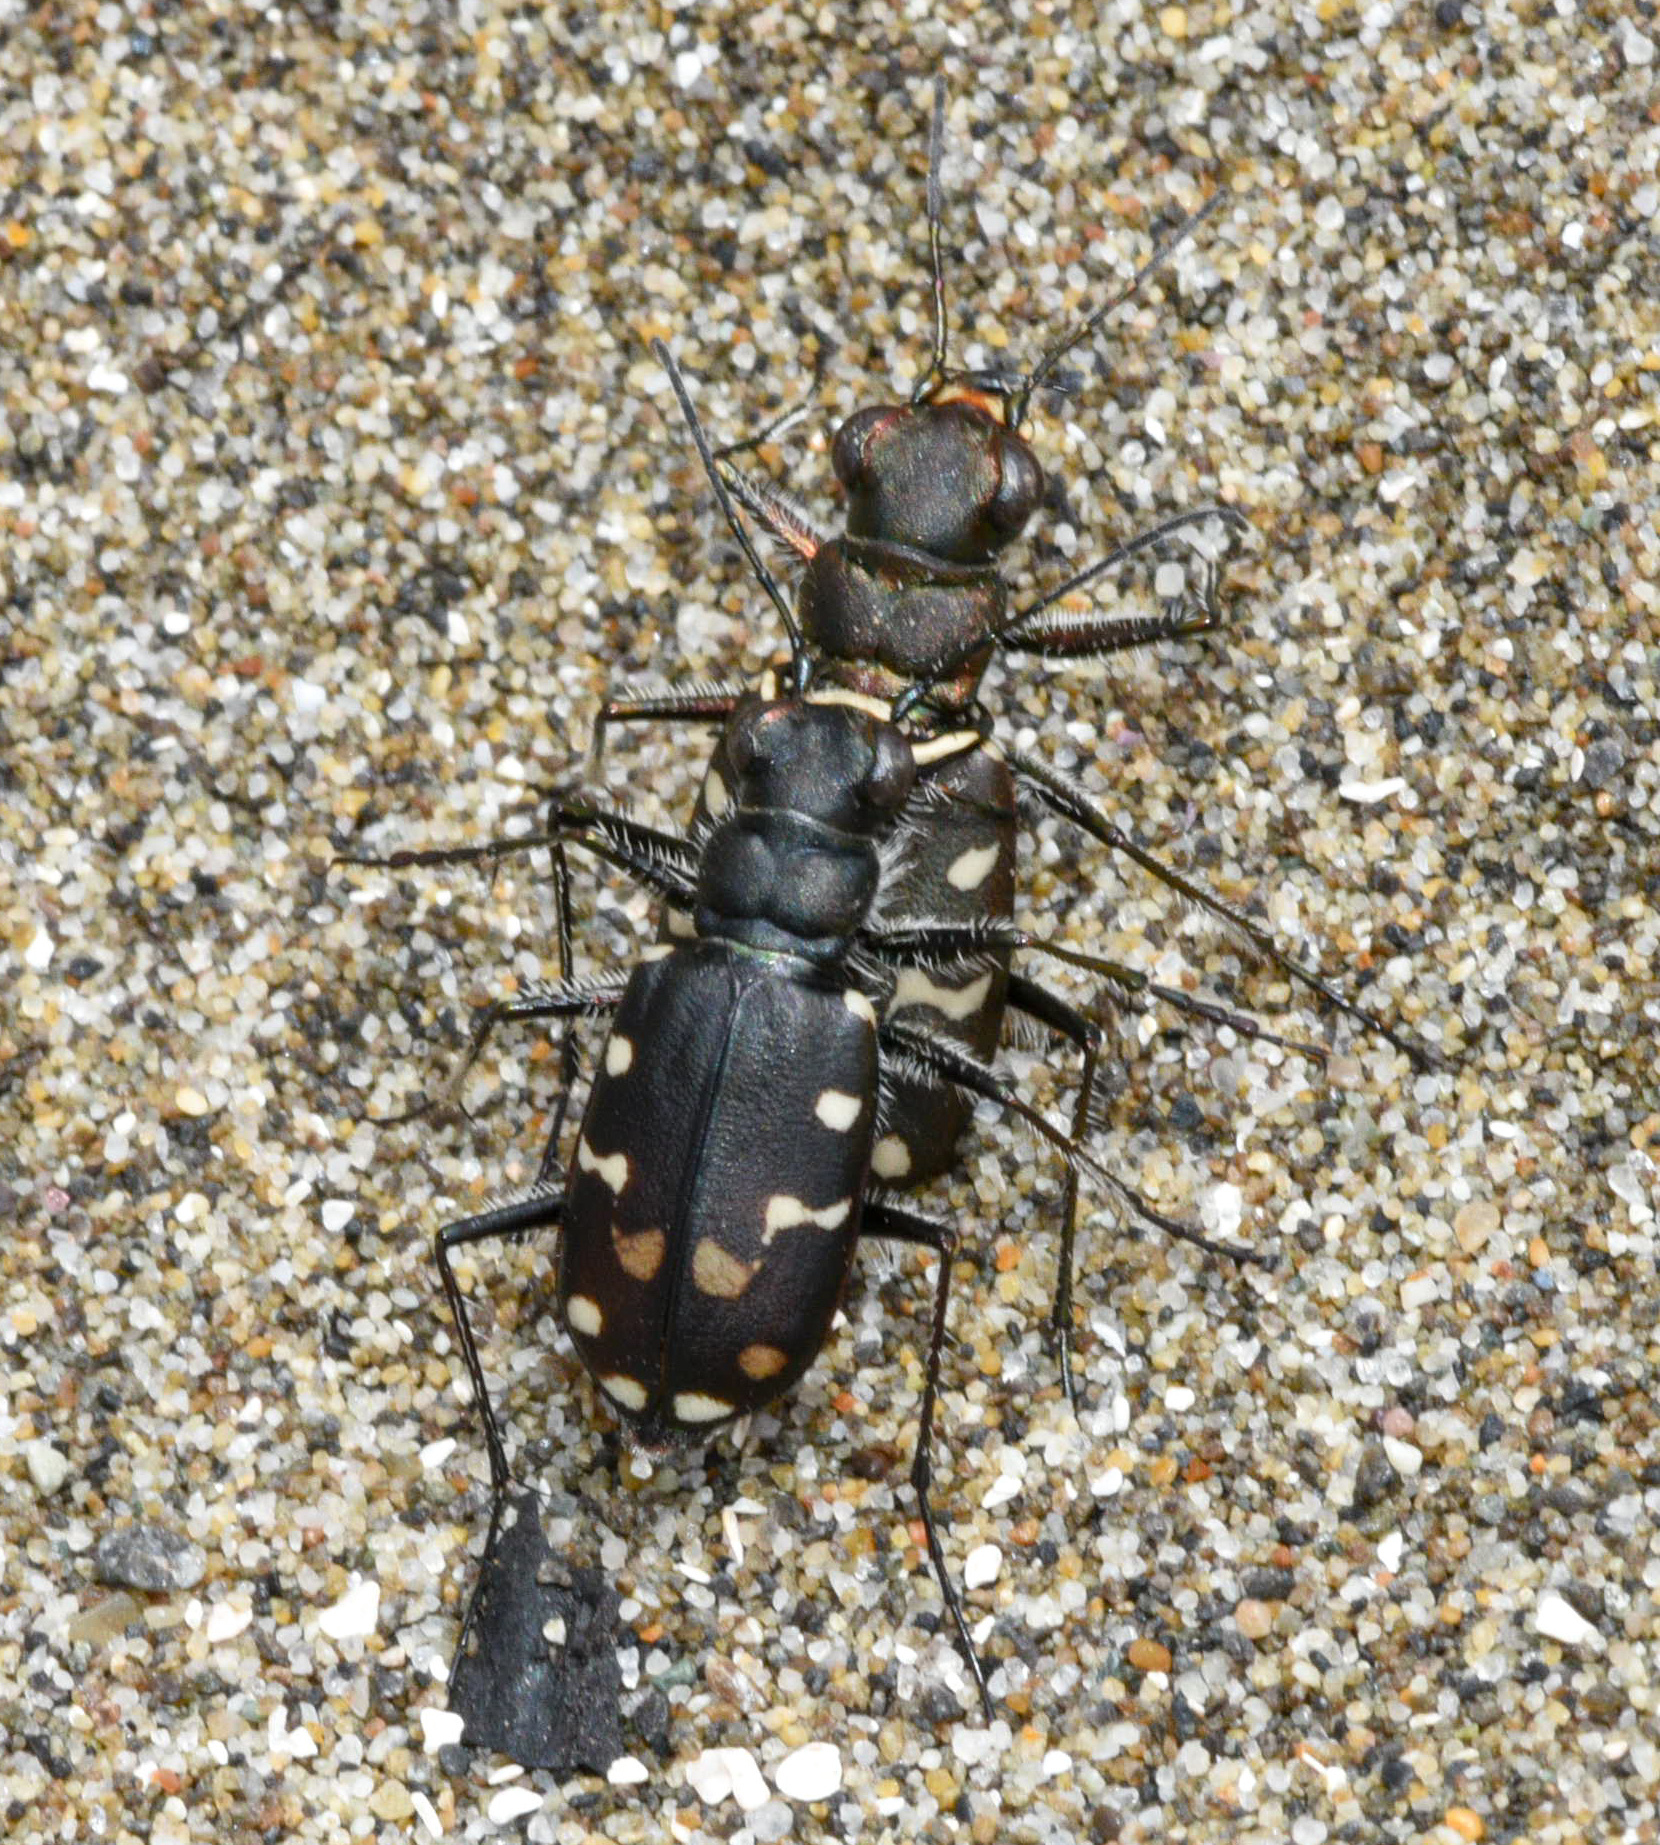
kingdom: Animalia
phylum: Arthropoda
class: Insecta
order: Coleoptera
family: Carabidae
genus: Cicindela
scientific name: Cicindela oregona
